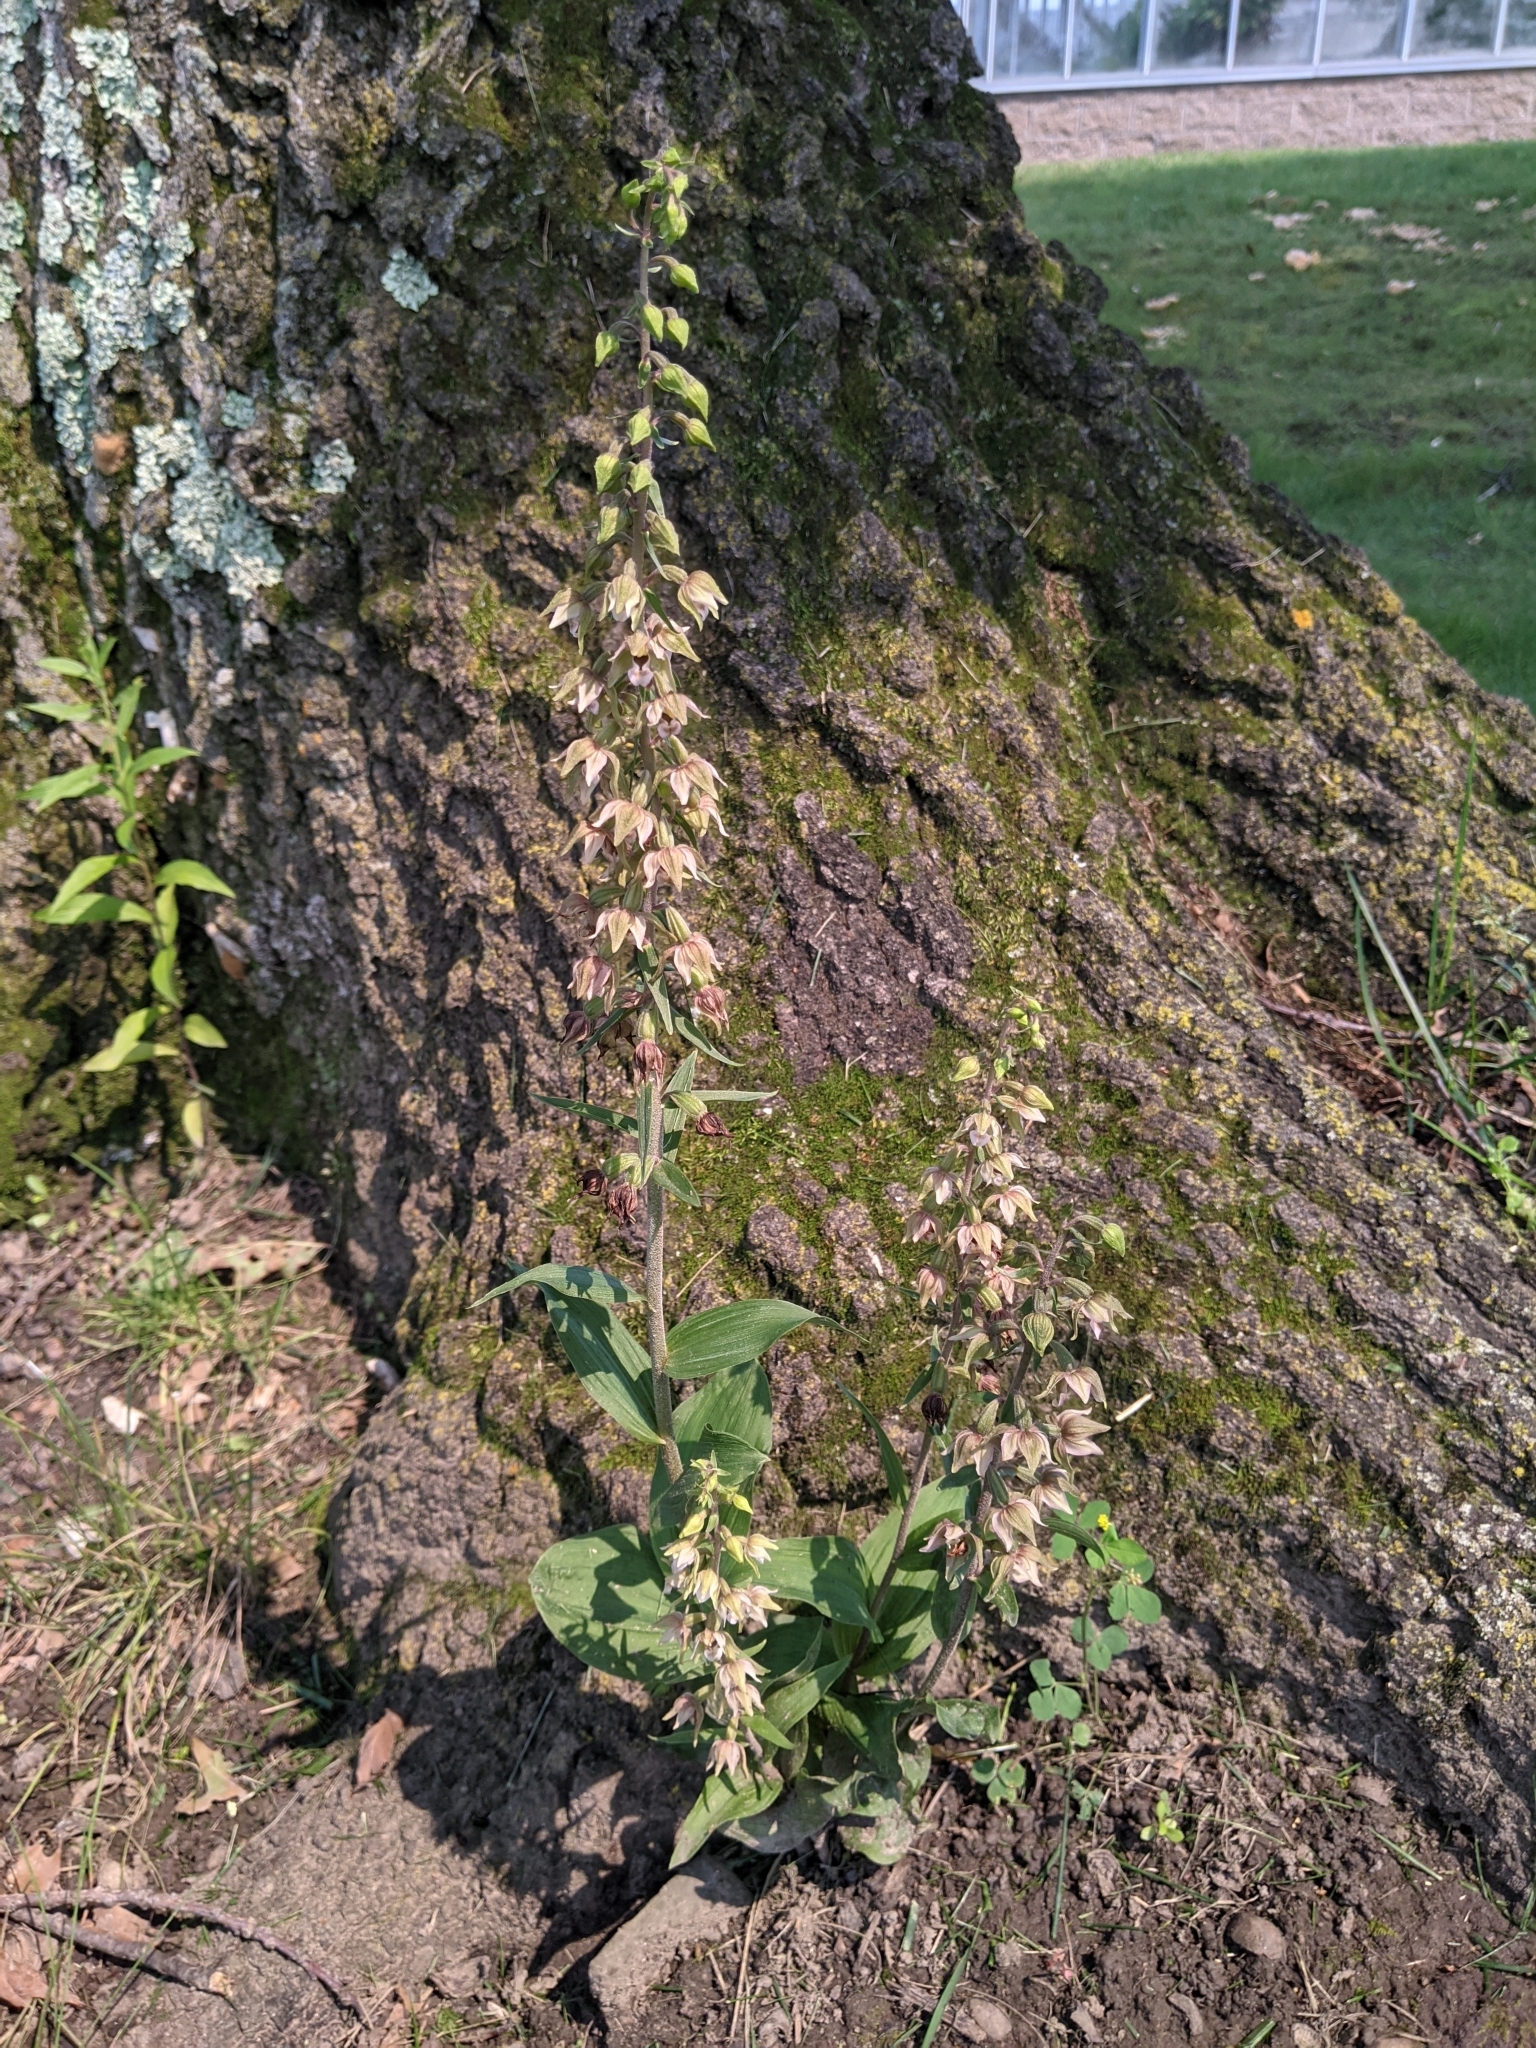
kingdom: Plantae
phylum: Tracheophyta
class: Liliopsida
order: Asparagales
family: Orchidaceae
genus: Epipactis
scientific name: Epipactis helleborine
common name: Broad-leaved helleborine
